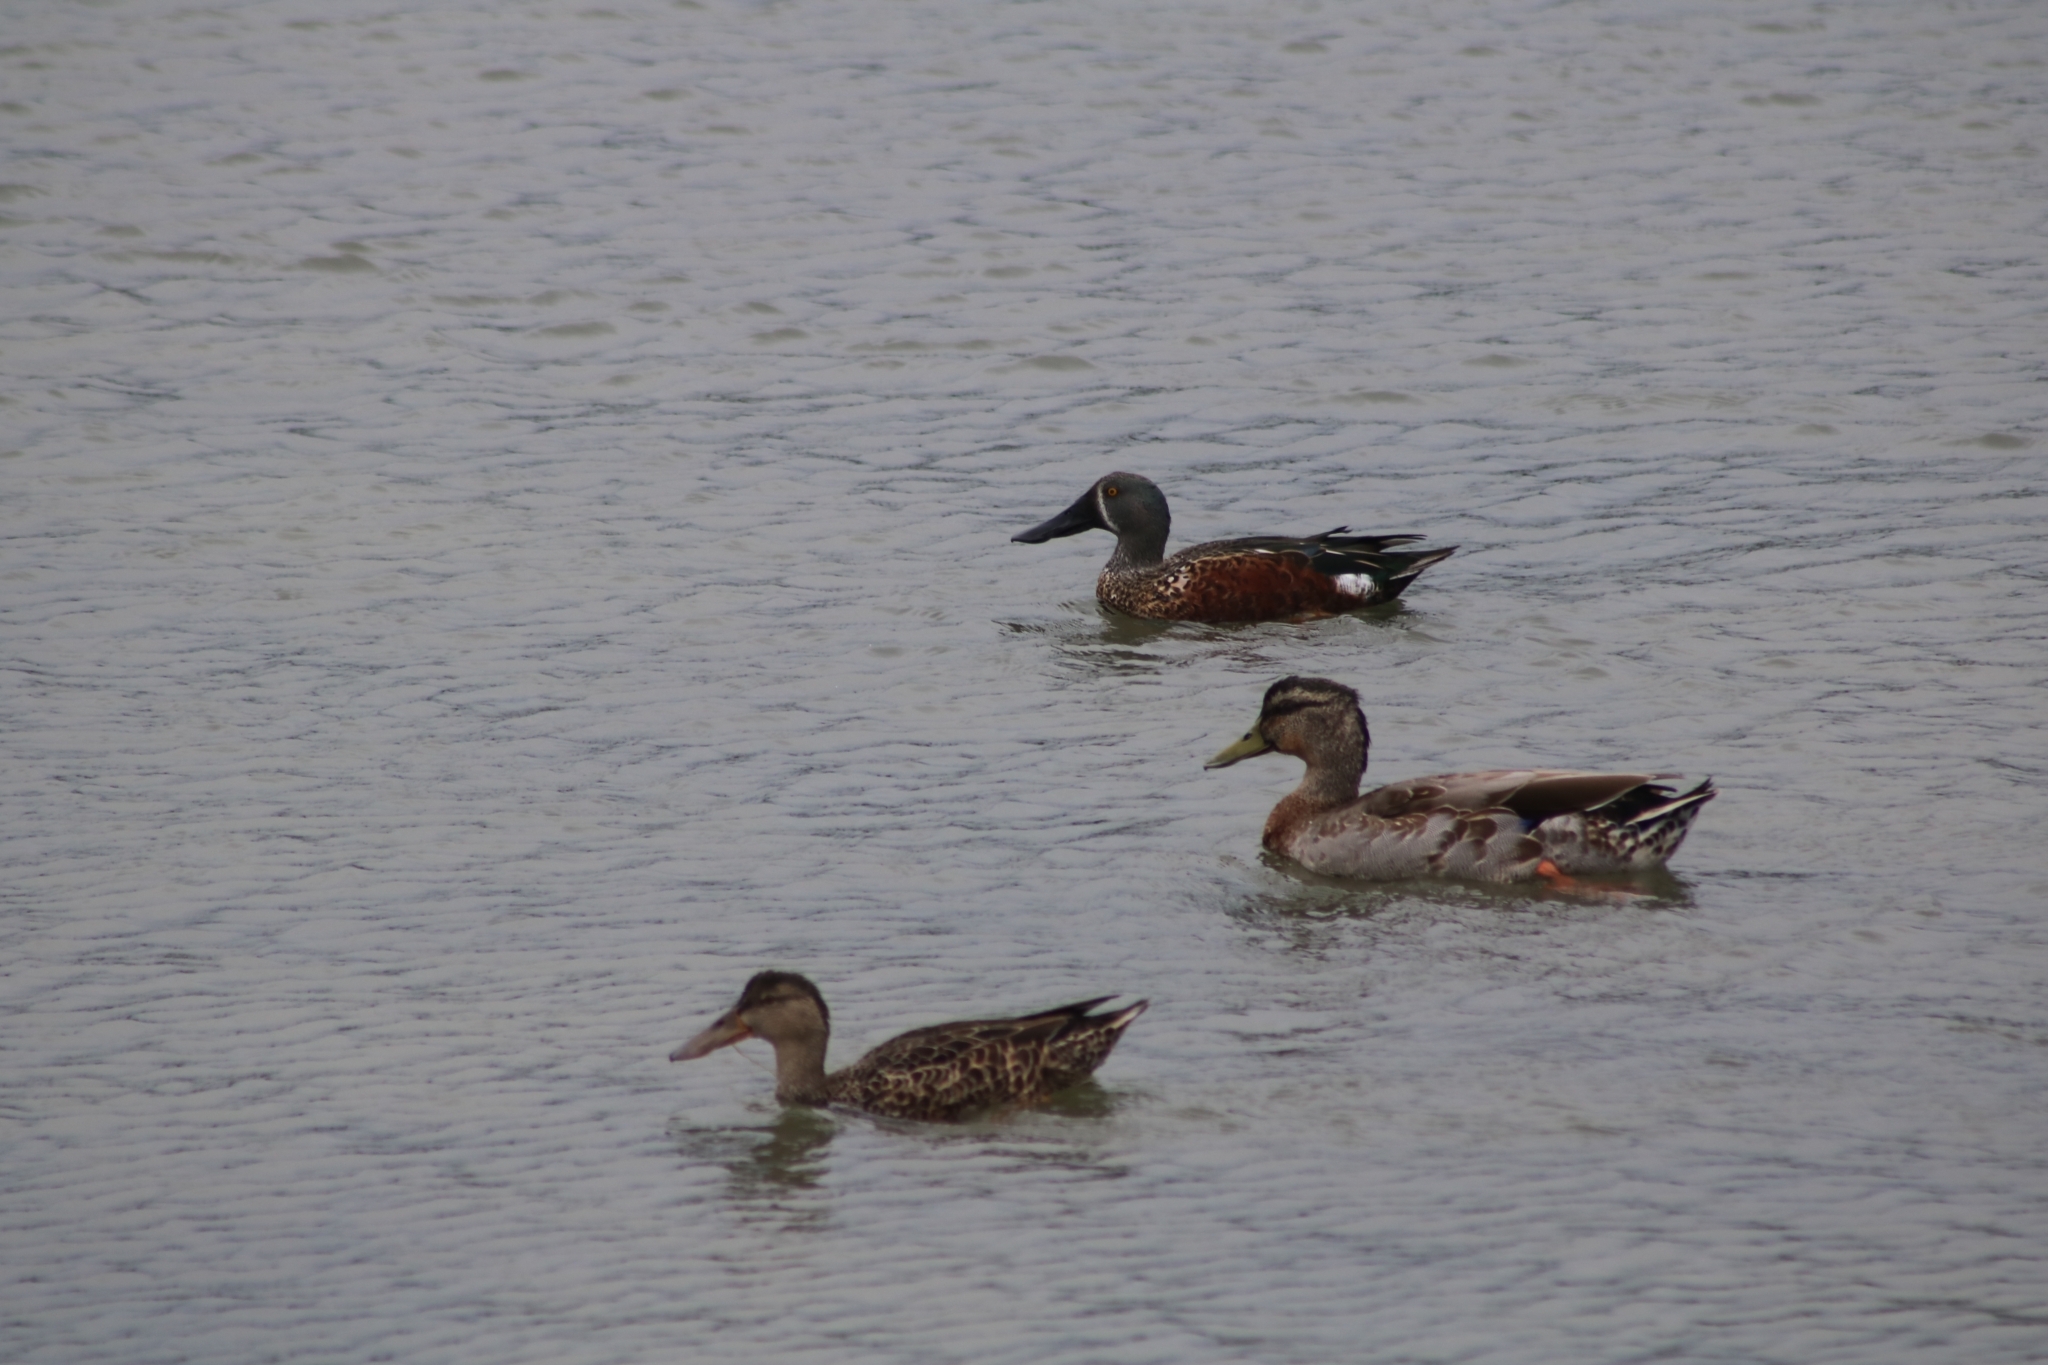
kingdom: Animalia
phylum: Chordata
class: Aves
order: Anseriformes
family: Anatidae
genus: Spatula
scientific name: Spatula rhynchotis
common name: Australian shoveler
